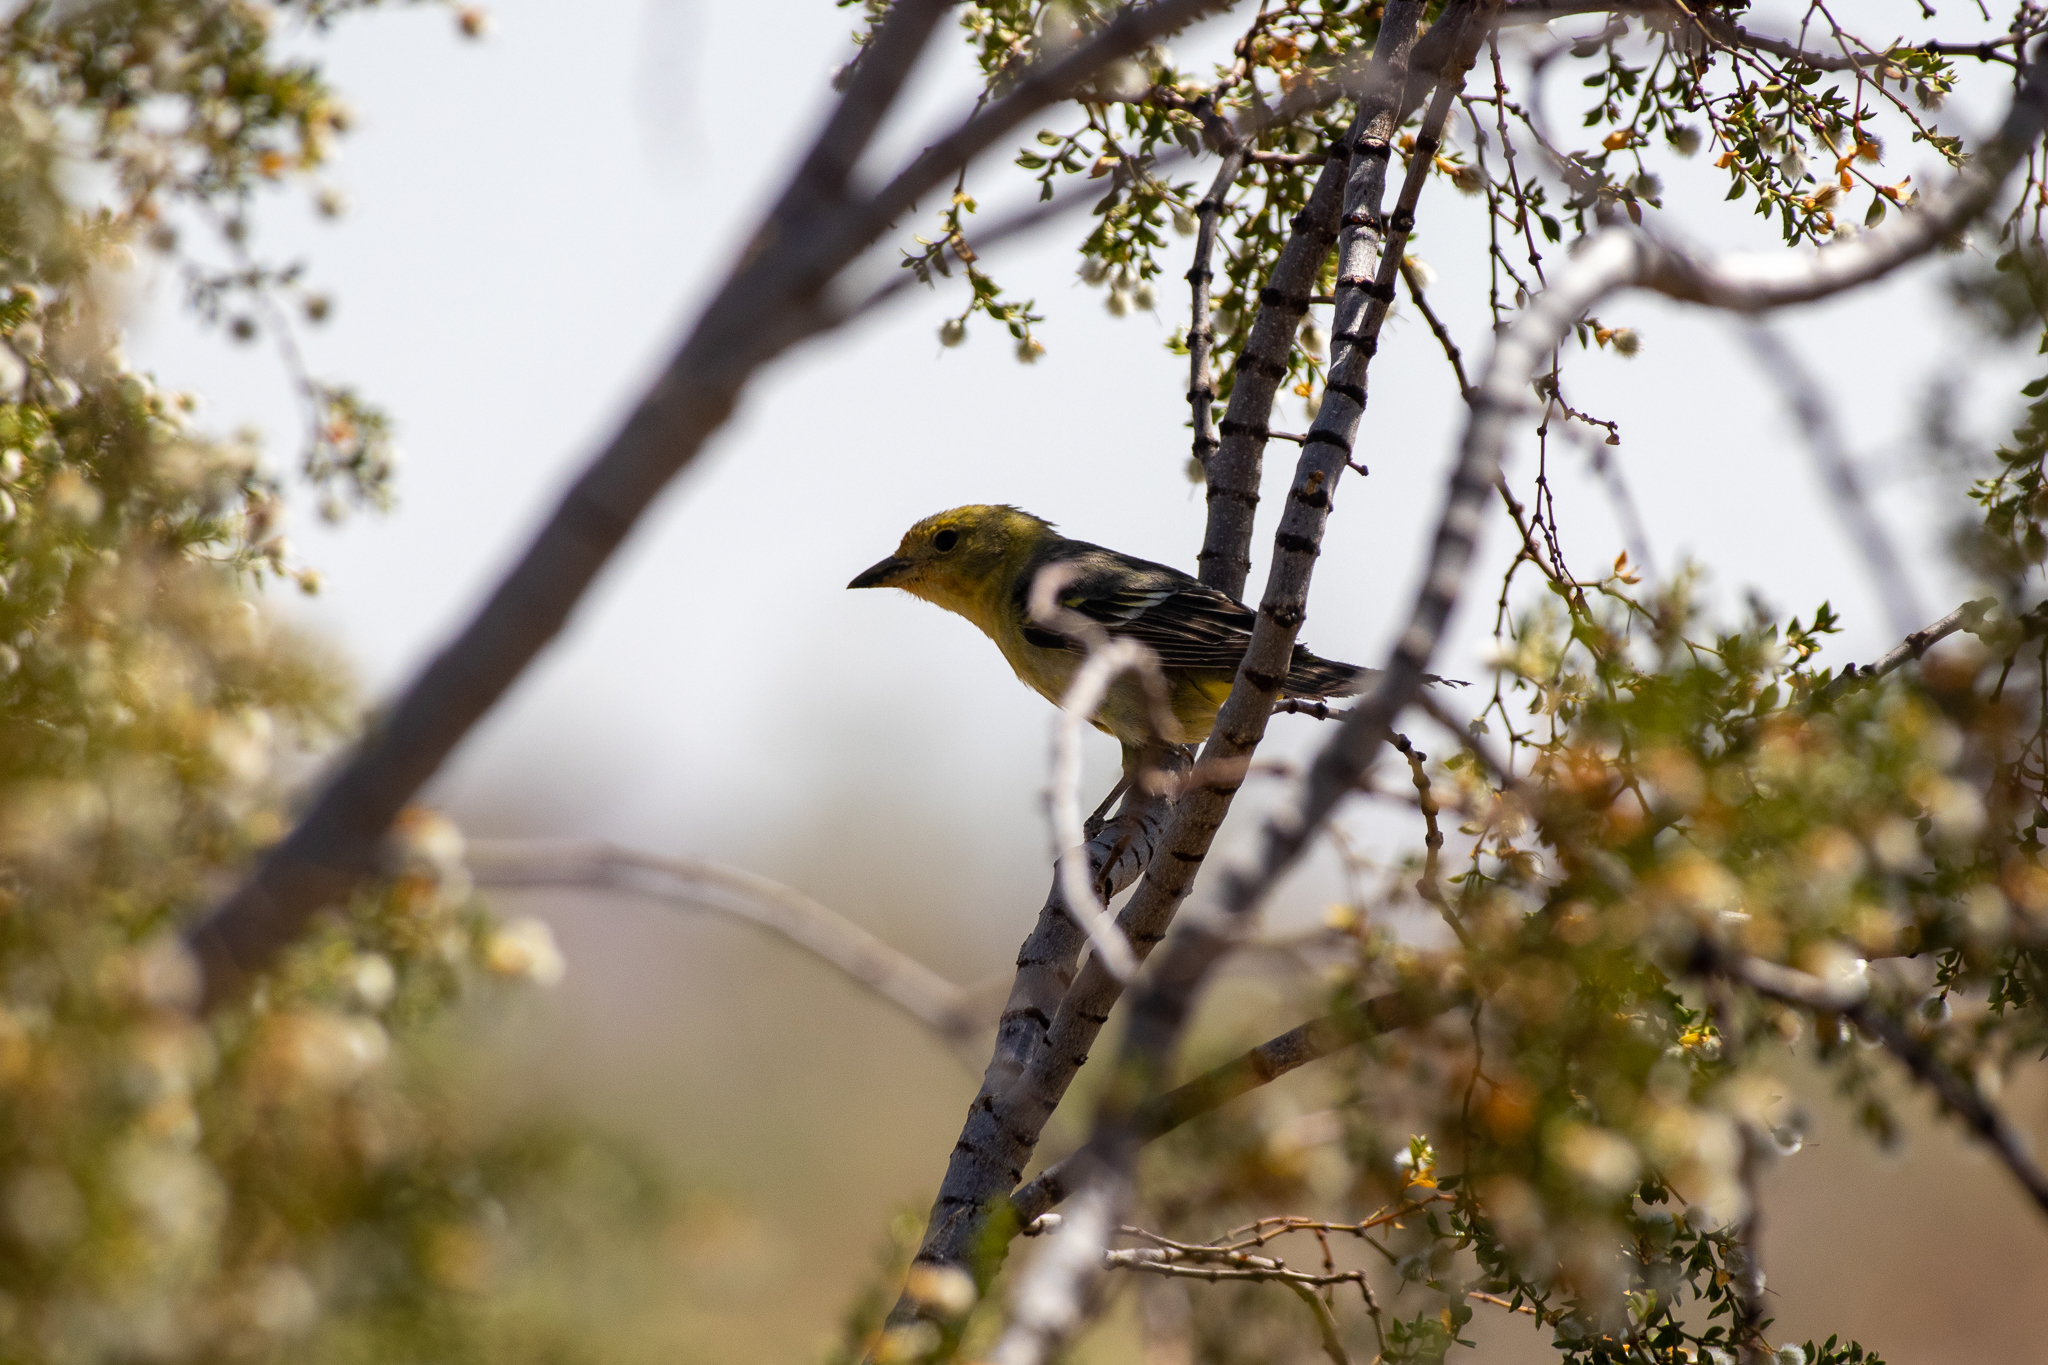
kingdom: Animalia
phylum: Chordata
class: Aves
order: Passeriformes
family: Cardinalidae
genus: Piranga
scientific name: Piranga ludoviciana
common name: Western tanager
